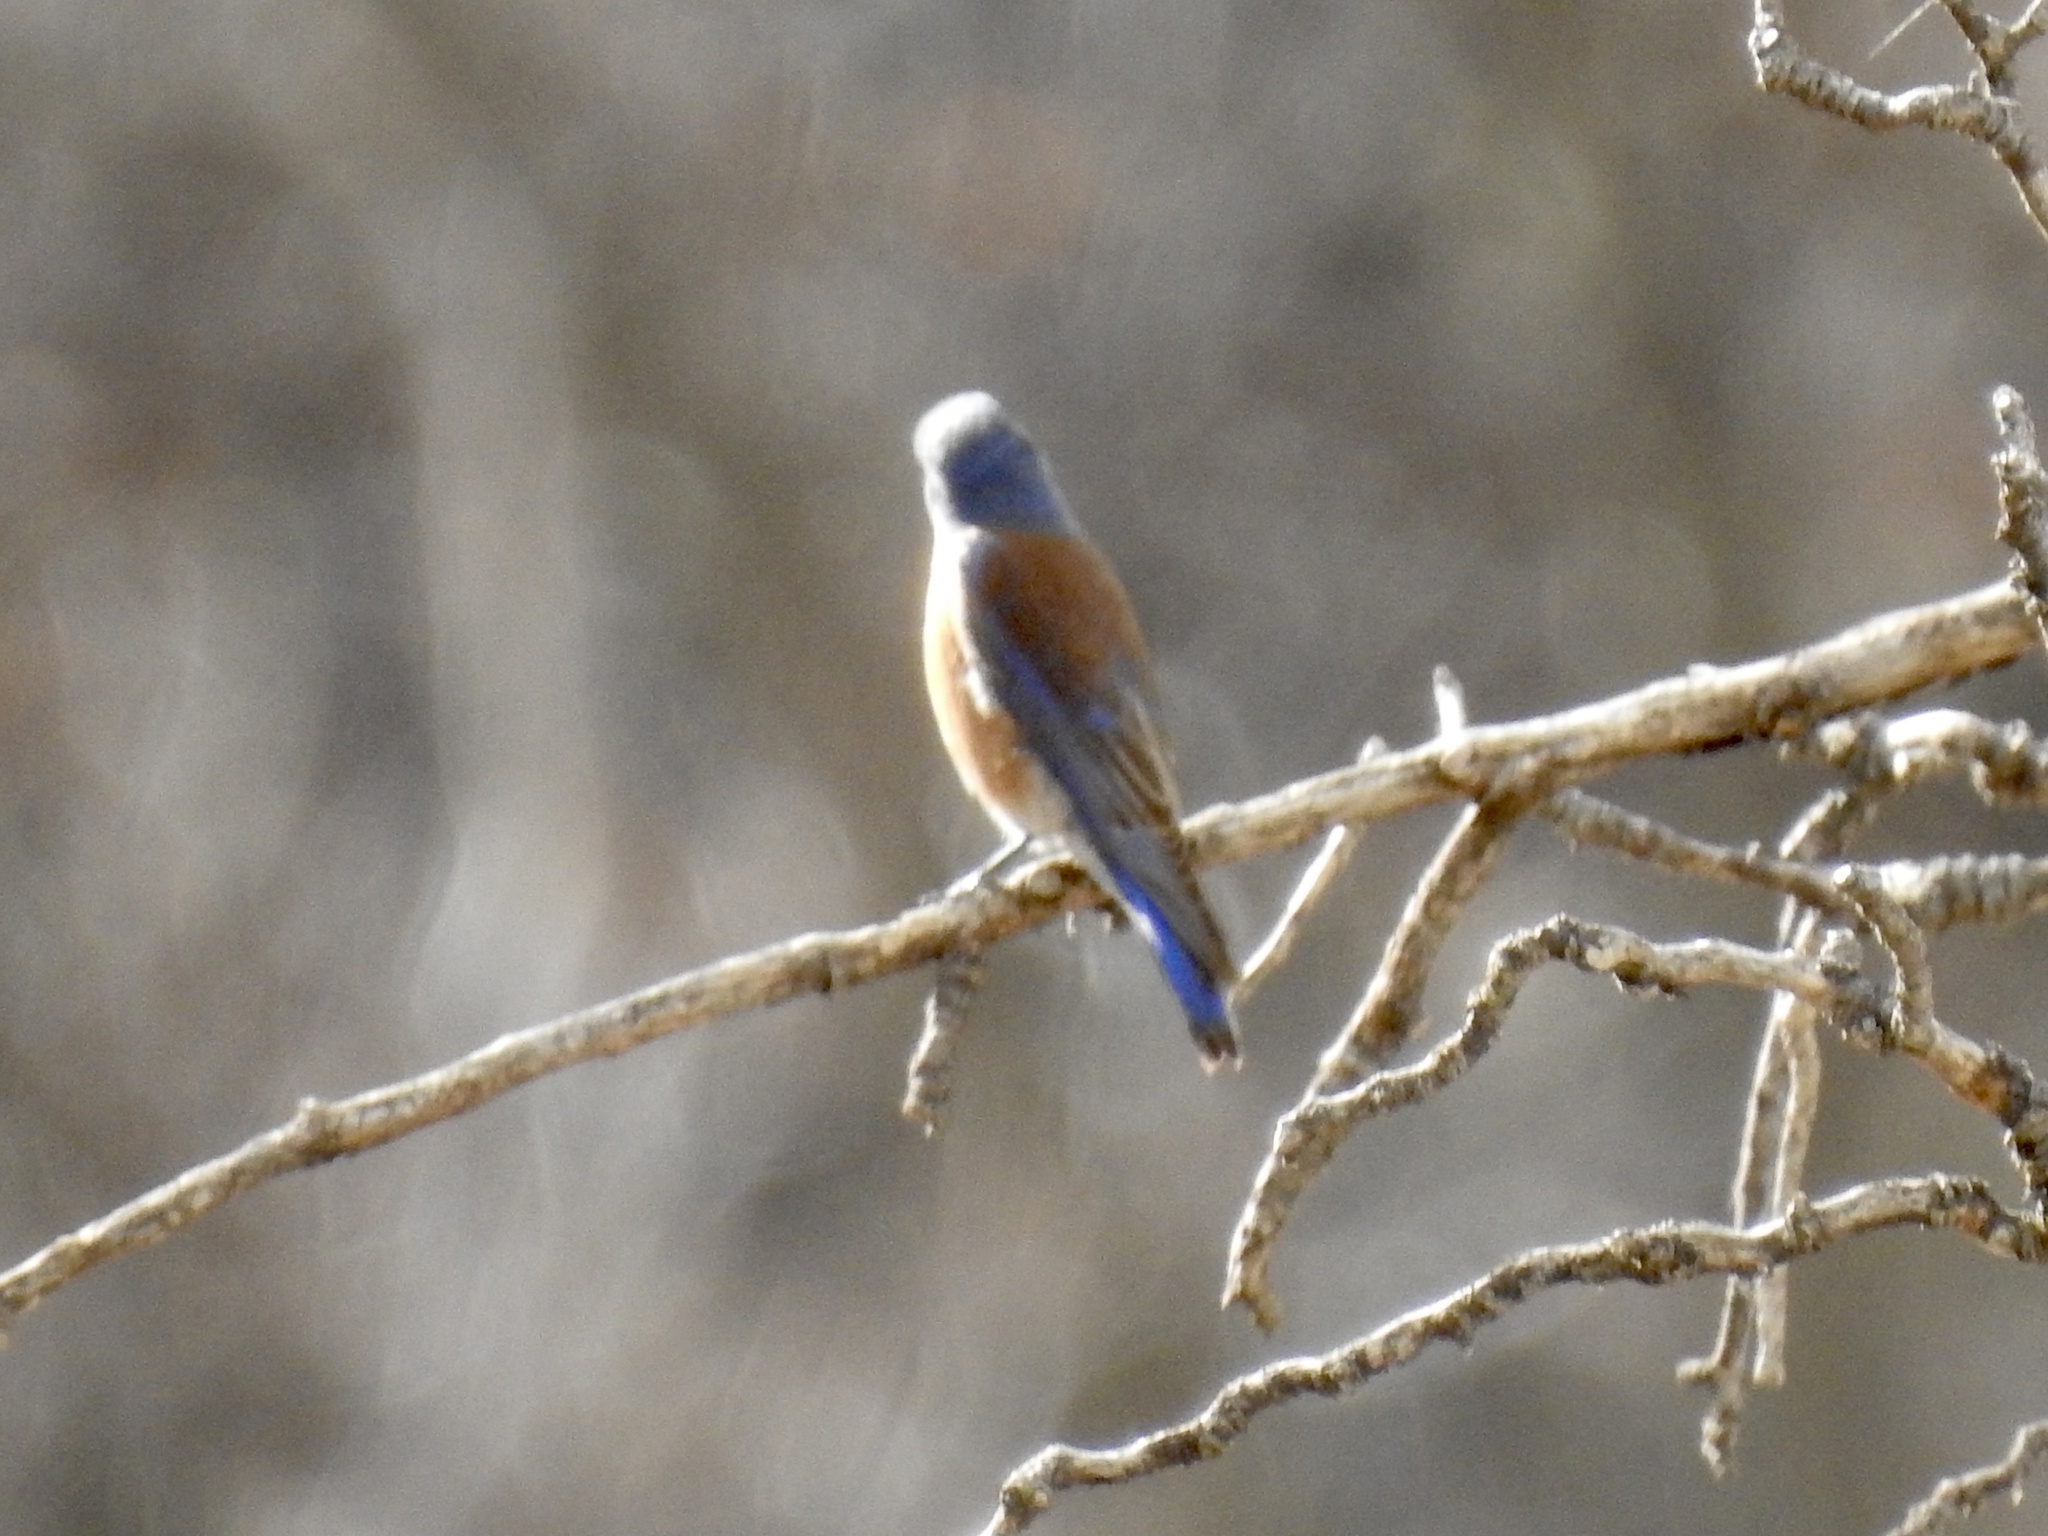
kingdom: Animalia
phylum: Chordata
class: Aves
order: Passeriformes
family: Turdidae
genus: Sialia
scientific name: Sialia mexicana
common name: Western bluebird
